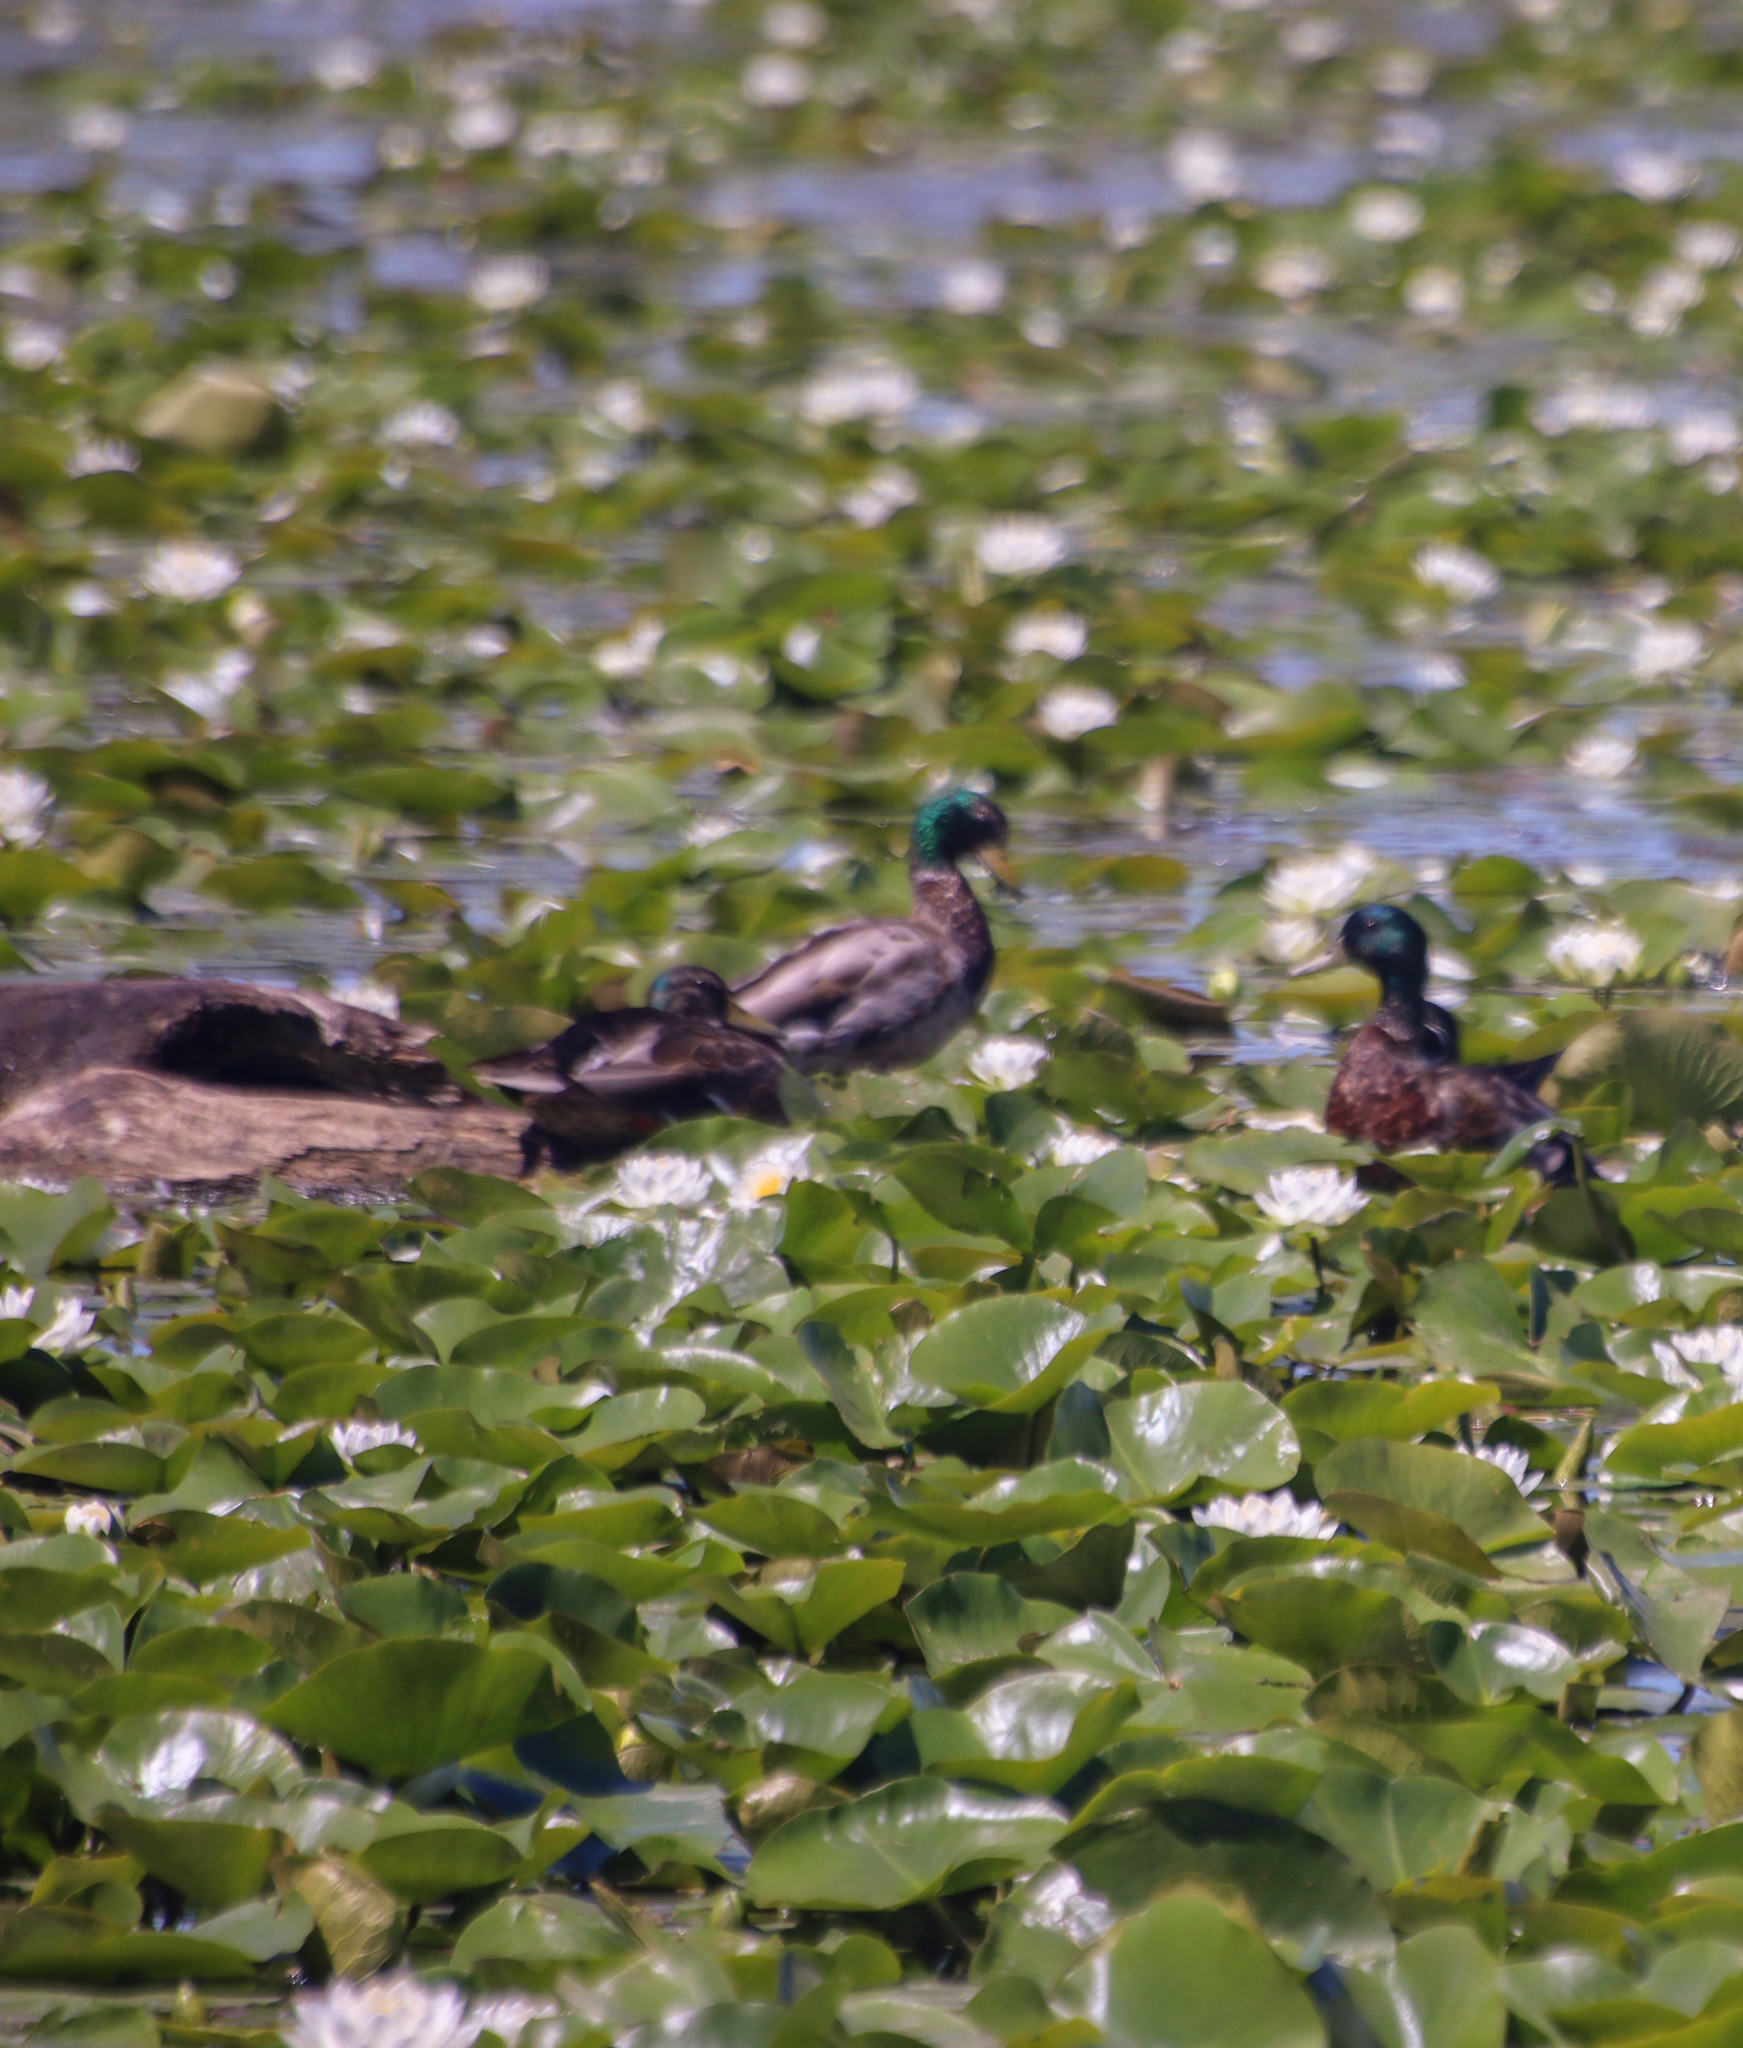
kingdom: Animalia
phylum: Chordata
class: Aves
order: Anseriformes
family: Anatidae
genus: Anas
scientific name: Anas platyrhynchos
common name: Mallard
